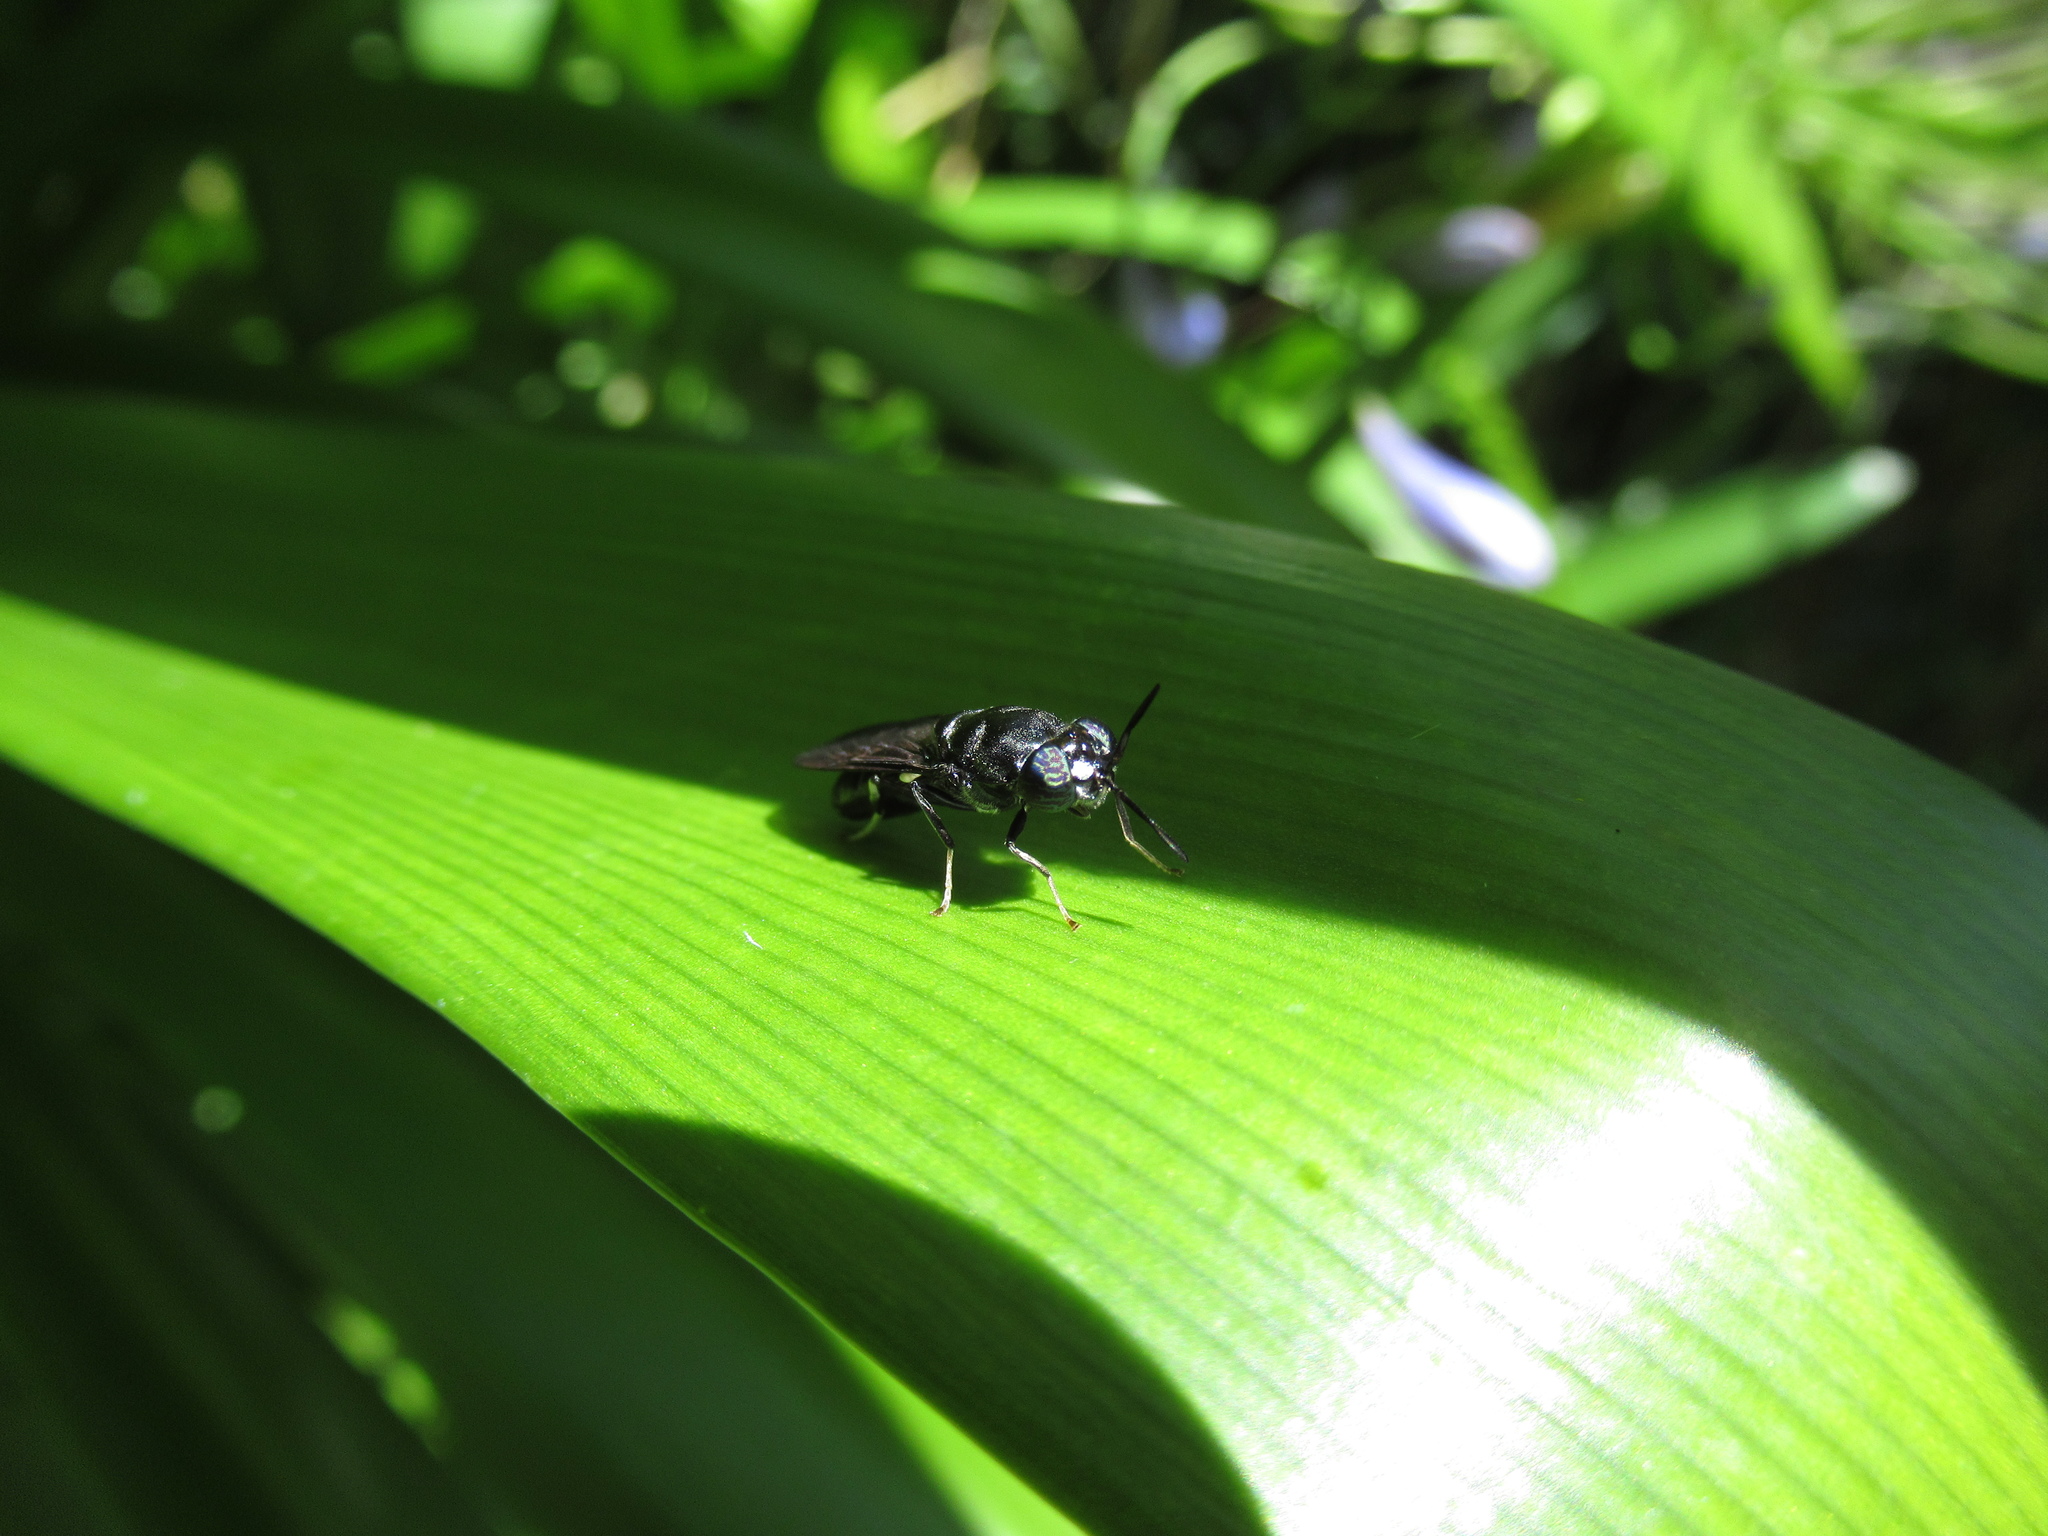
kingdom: Animalia
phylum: Arthropoda
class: Insecta
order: Diptera
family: Stratiomyidae
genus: Hermetia
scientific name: Hermetia illucens
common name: Black soldier fly
